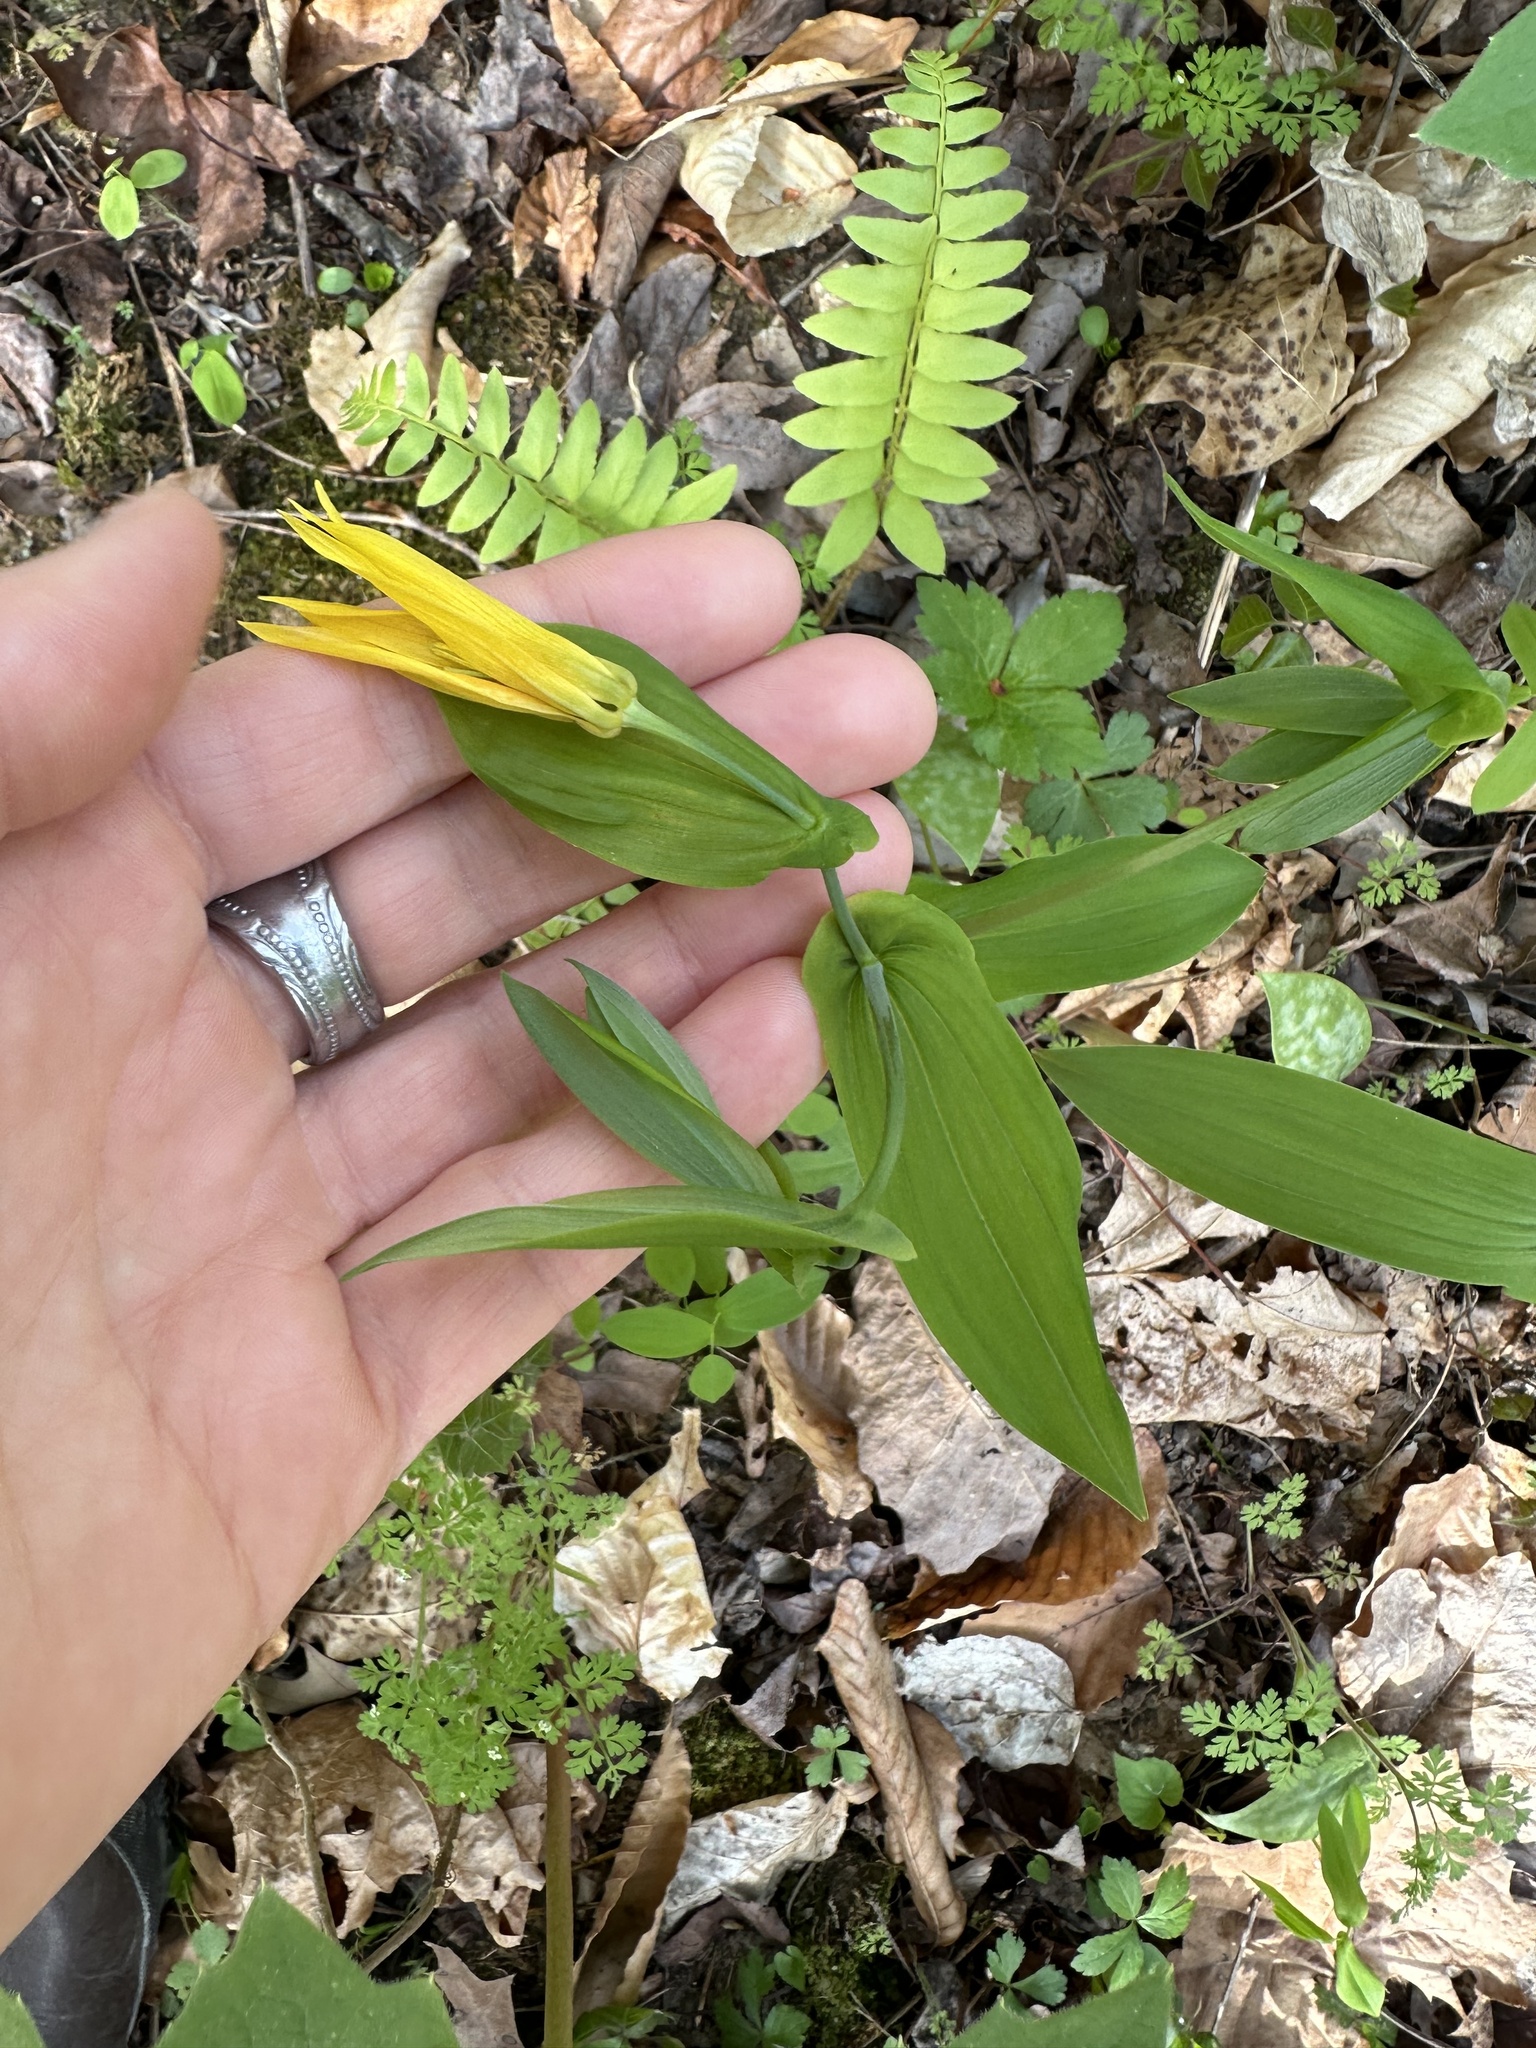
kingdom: Plantae
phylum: Tracheophyta
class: Liliopsida
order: Liliales
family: Colchicaceae
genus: Uvularia
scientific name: Uvularia grandiflora
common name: Bellwort
